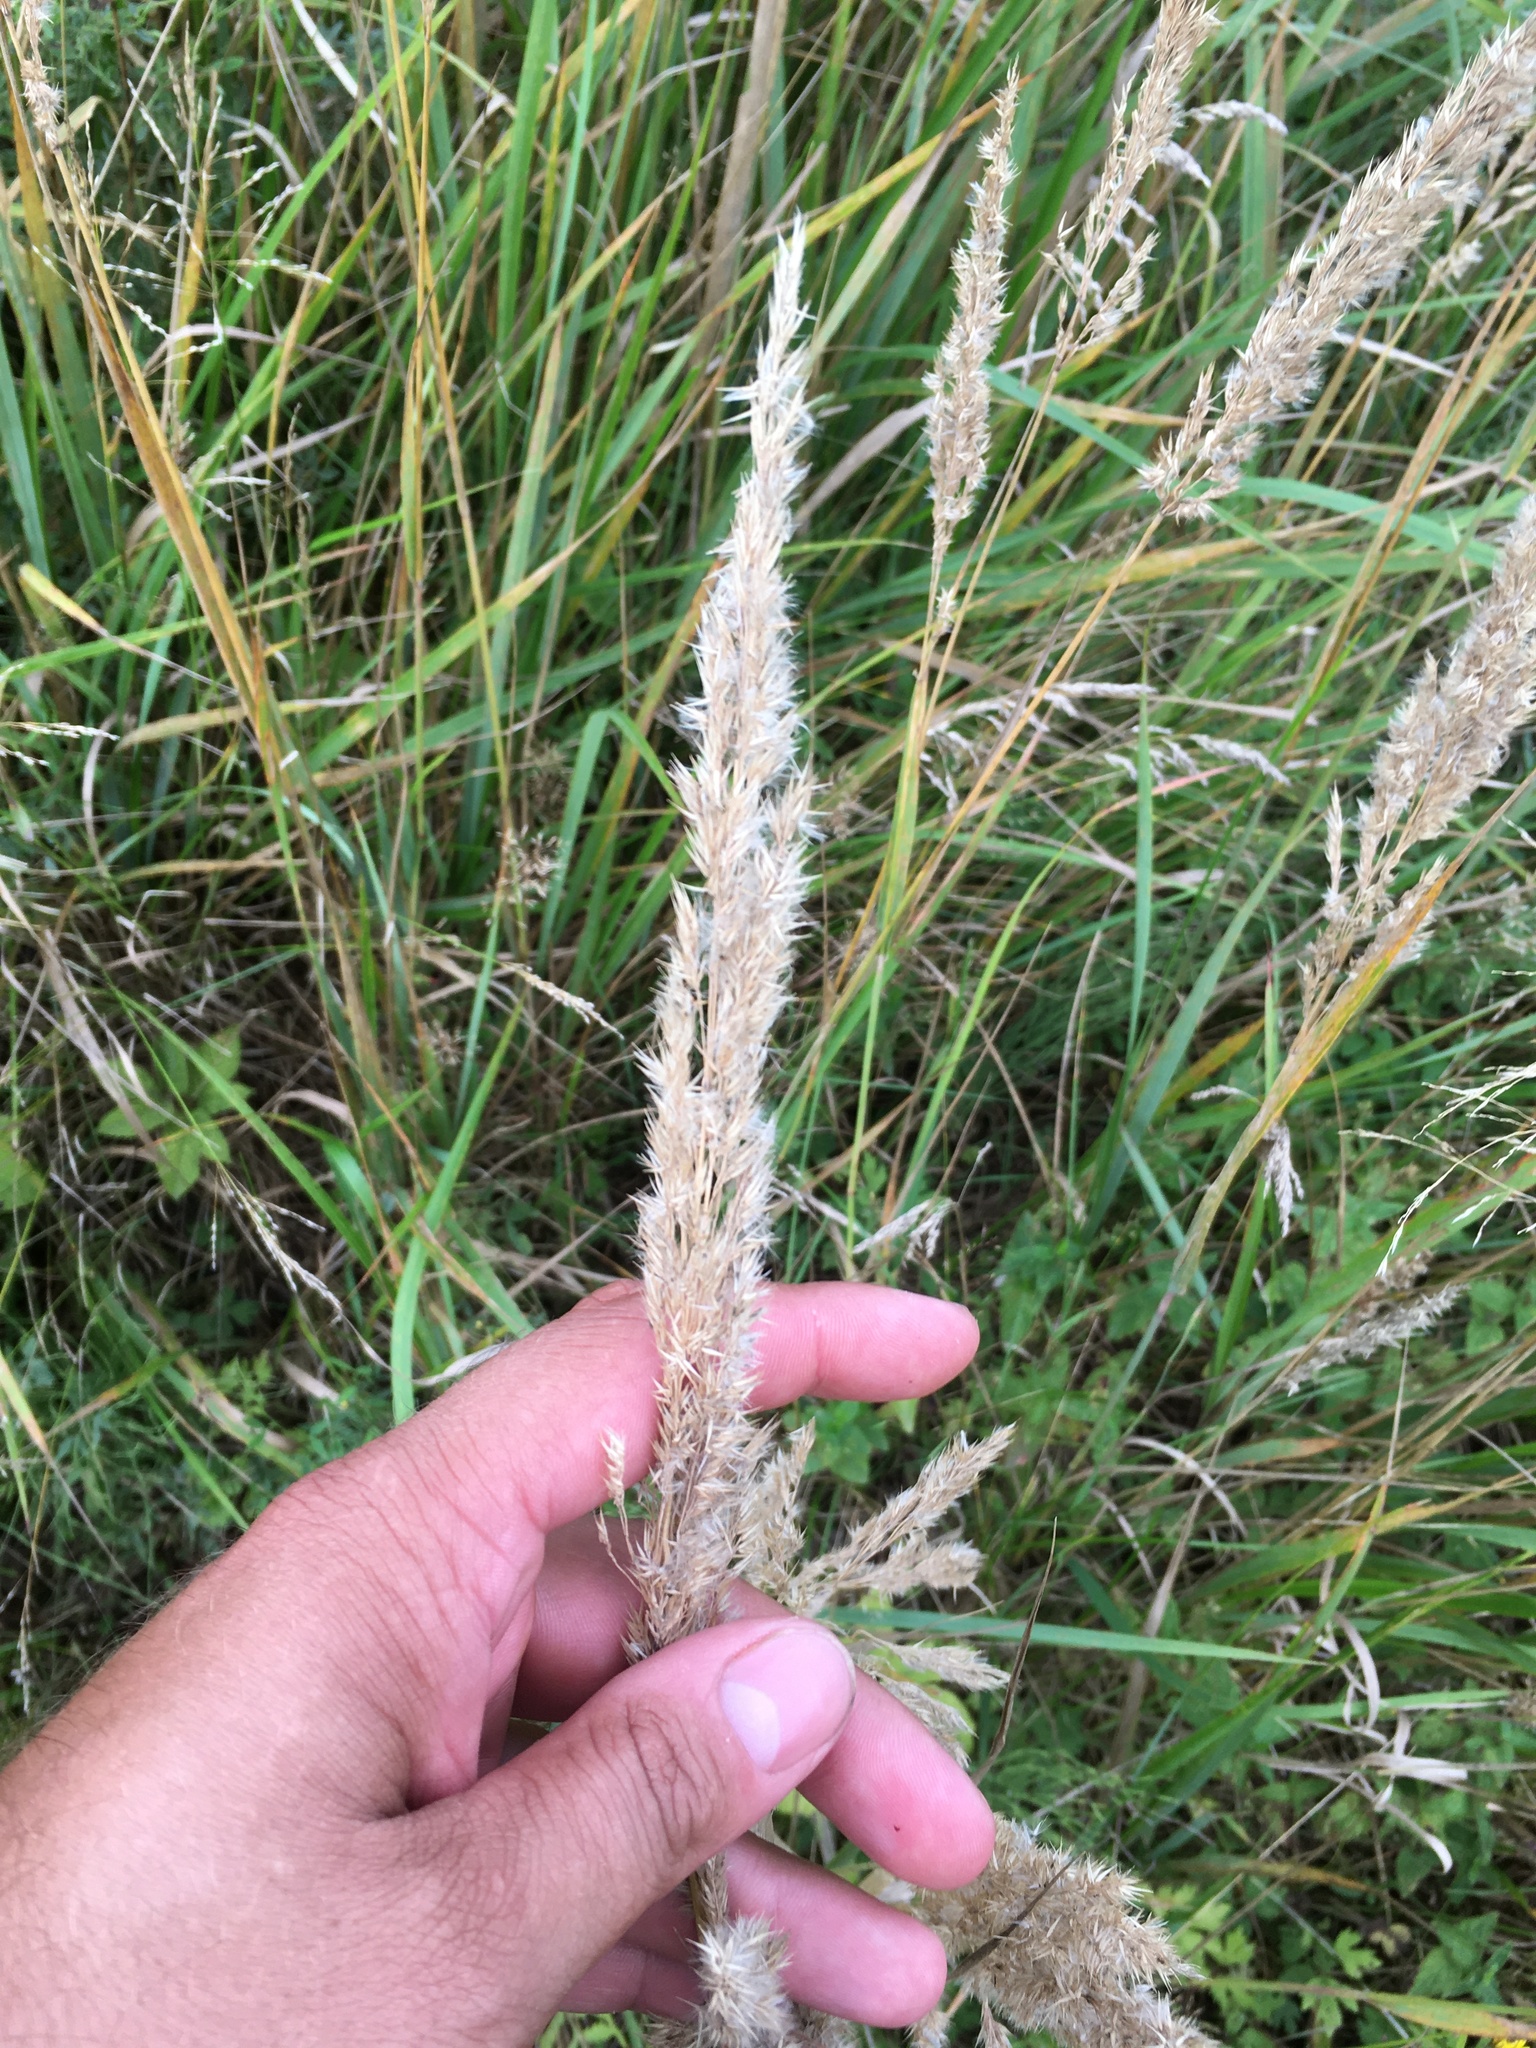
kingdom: Plantae
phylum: Tracheophyta
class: Liliopsida
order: Poales
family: Poaceae
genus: Calamagrostis
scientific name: Calamagrostis epigejos
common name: Wood small-reed
